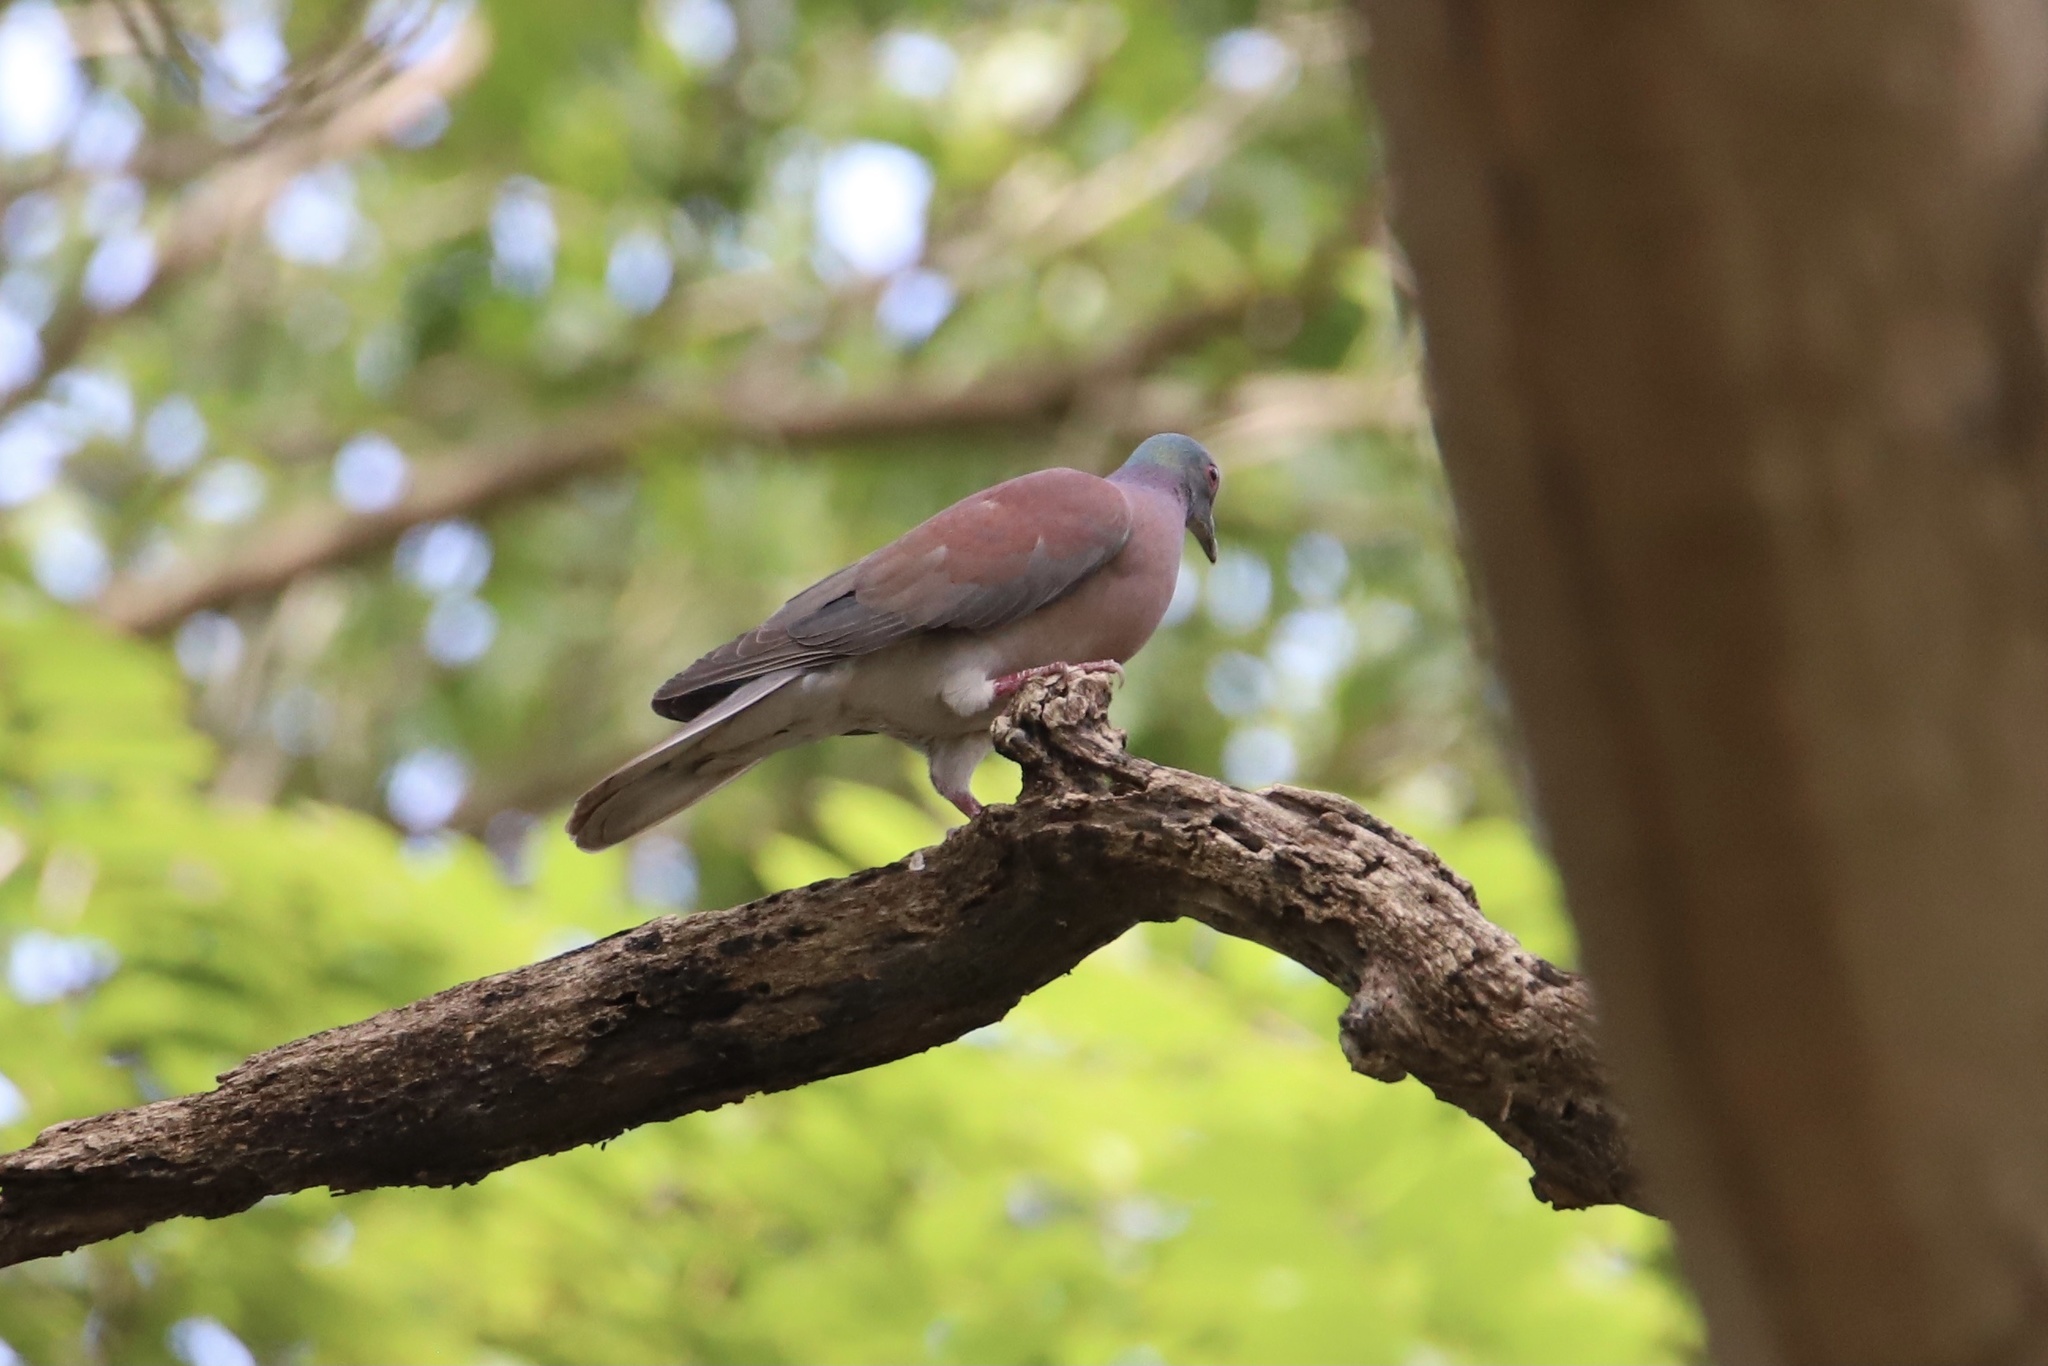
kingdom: Animalia
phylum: Chordata
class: Aves
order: Columbiformes
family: Columbidae
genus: Patagioenas
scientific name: Patagioenas cayennensis
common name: Pale-vented pigeon
